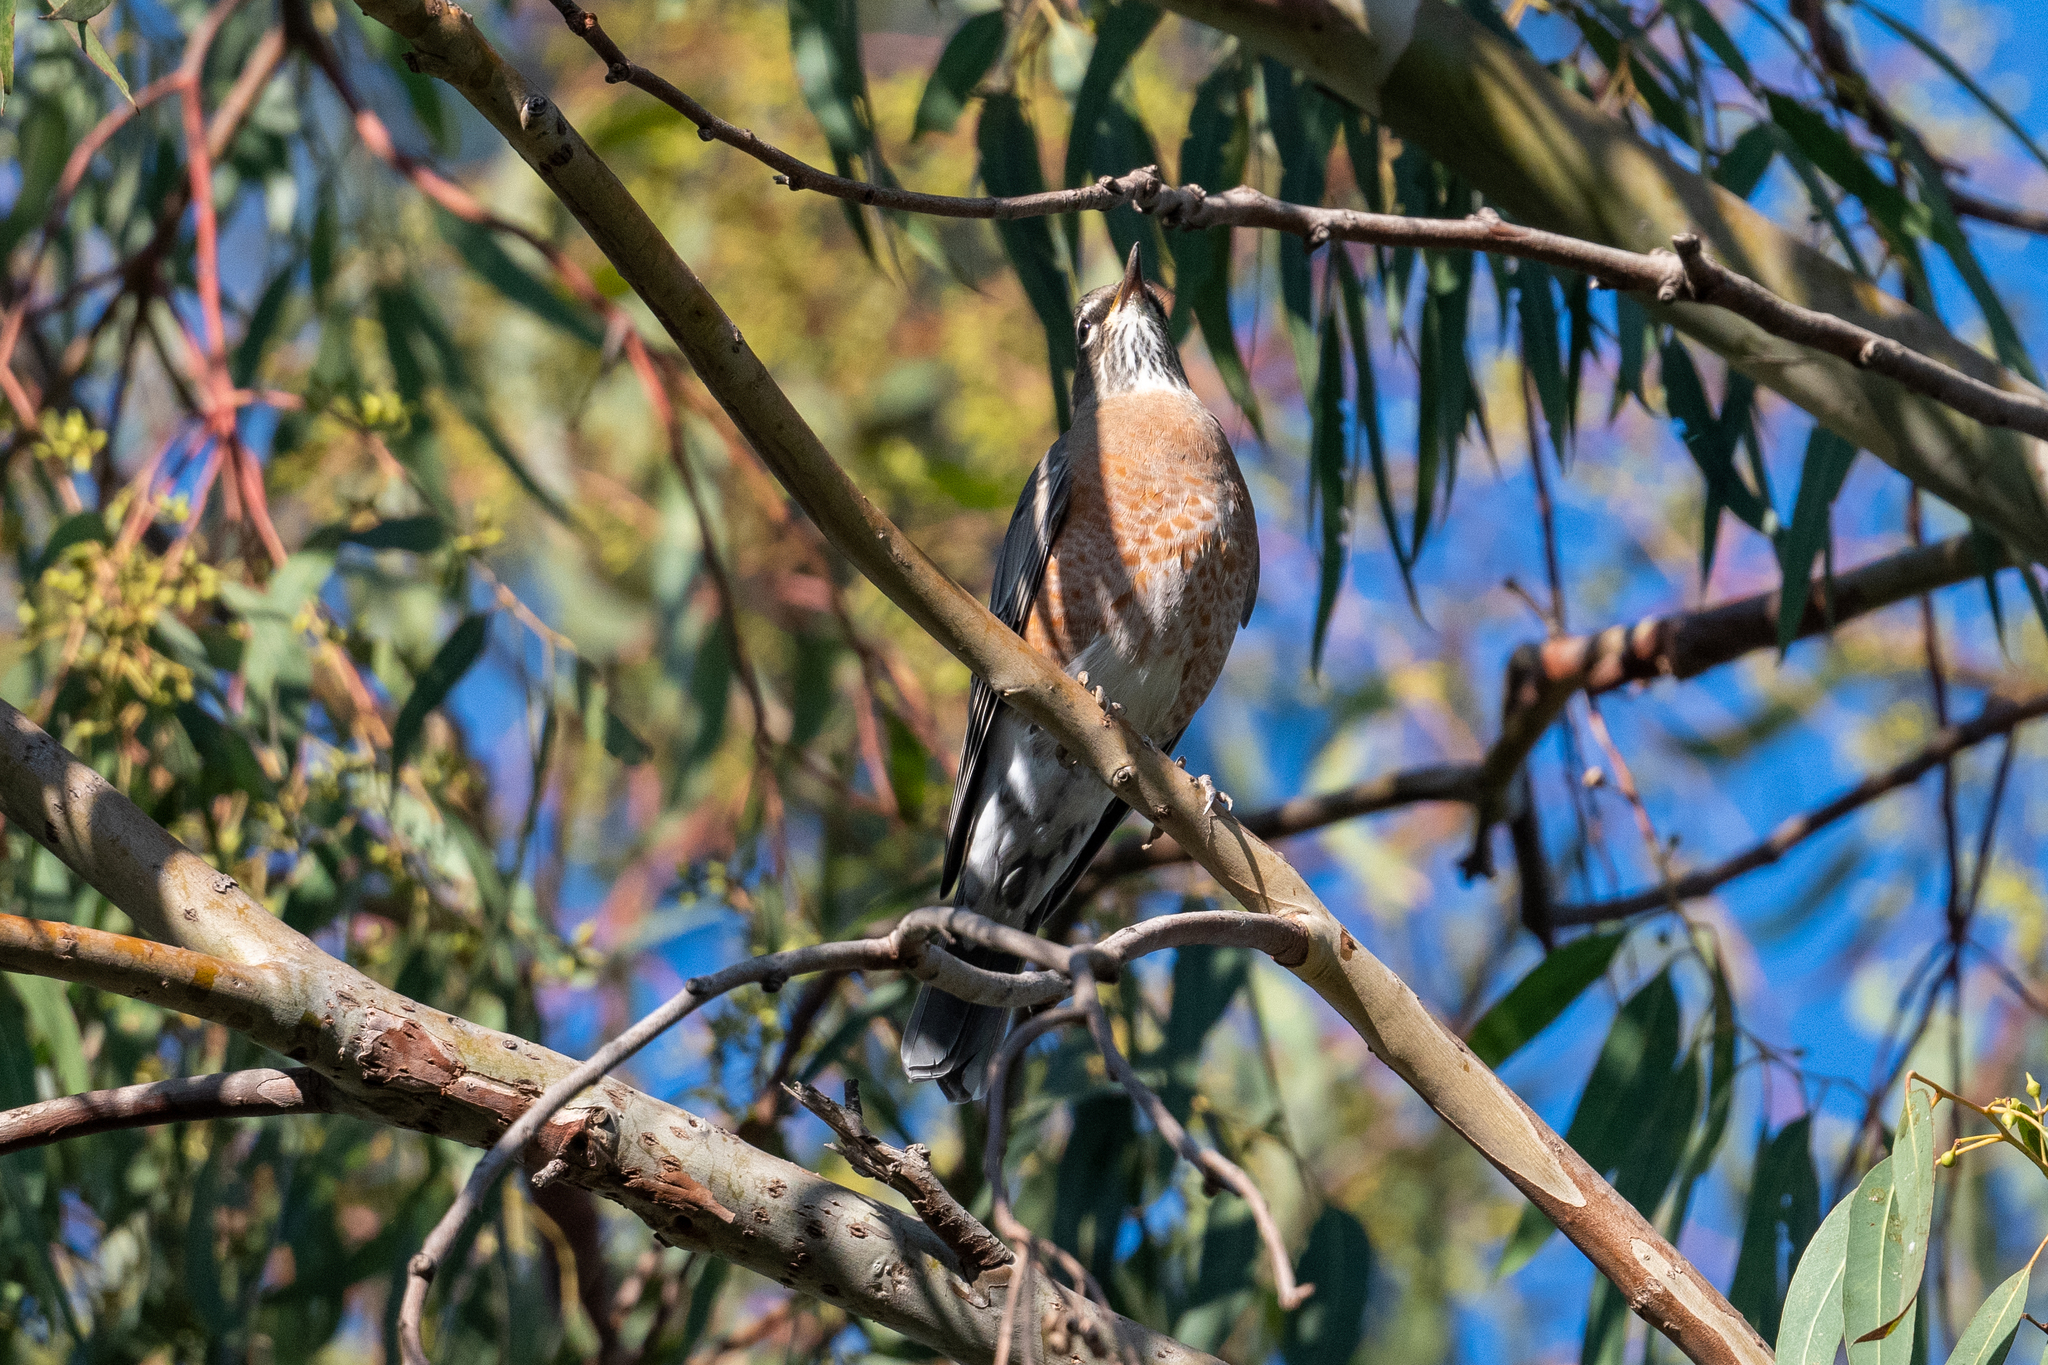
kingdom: Animalia
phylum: Chordata
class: Aves
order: Passeriformes
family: Turdidae
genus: Turdus
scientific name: Turdus migratorius
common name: American robin
